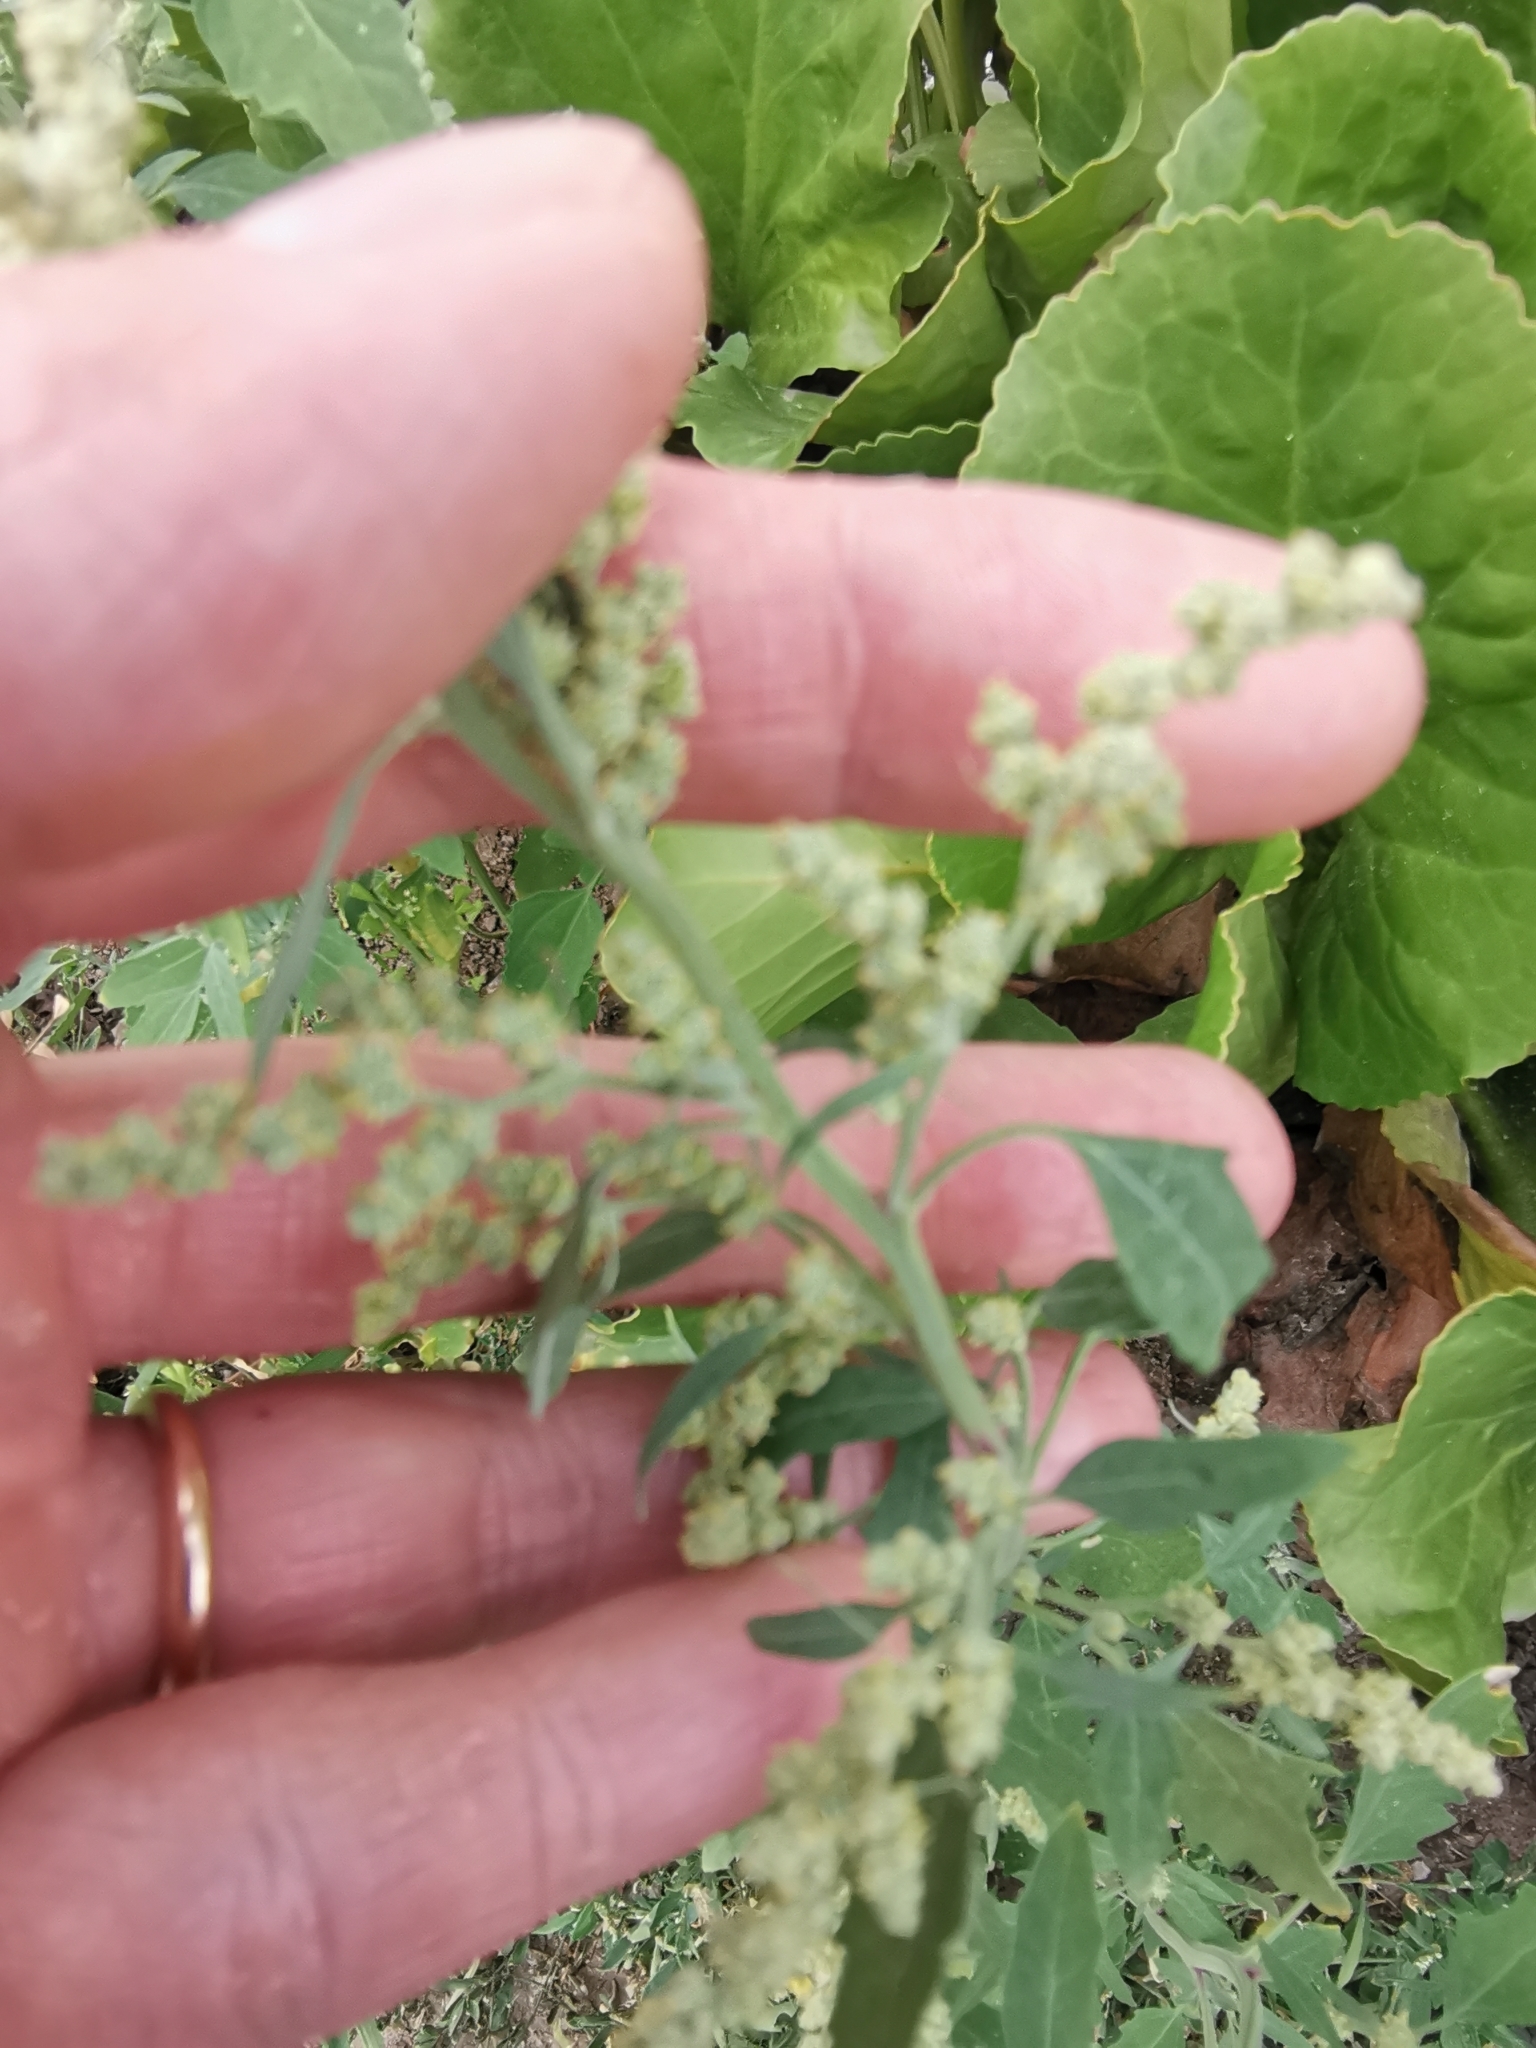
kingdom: Plantae
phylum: Tracheophyta
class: Magnoliopsida
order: Caryophyllales
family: Amaranthaceae
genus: Chenopodium
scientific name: Chenopodium album
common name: Fat-hen
